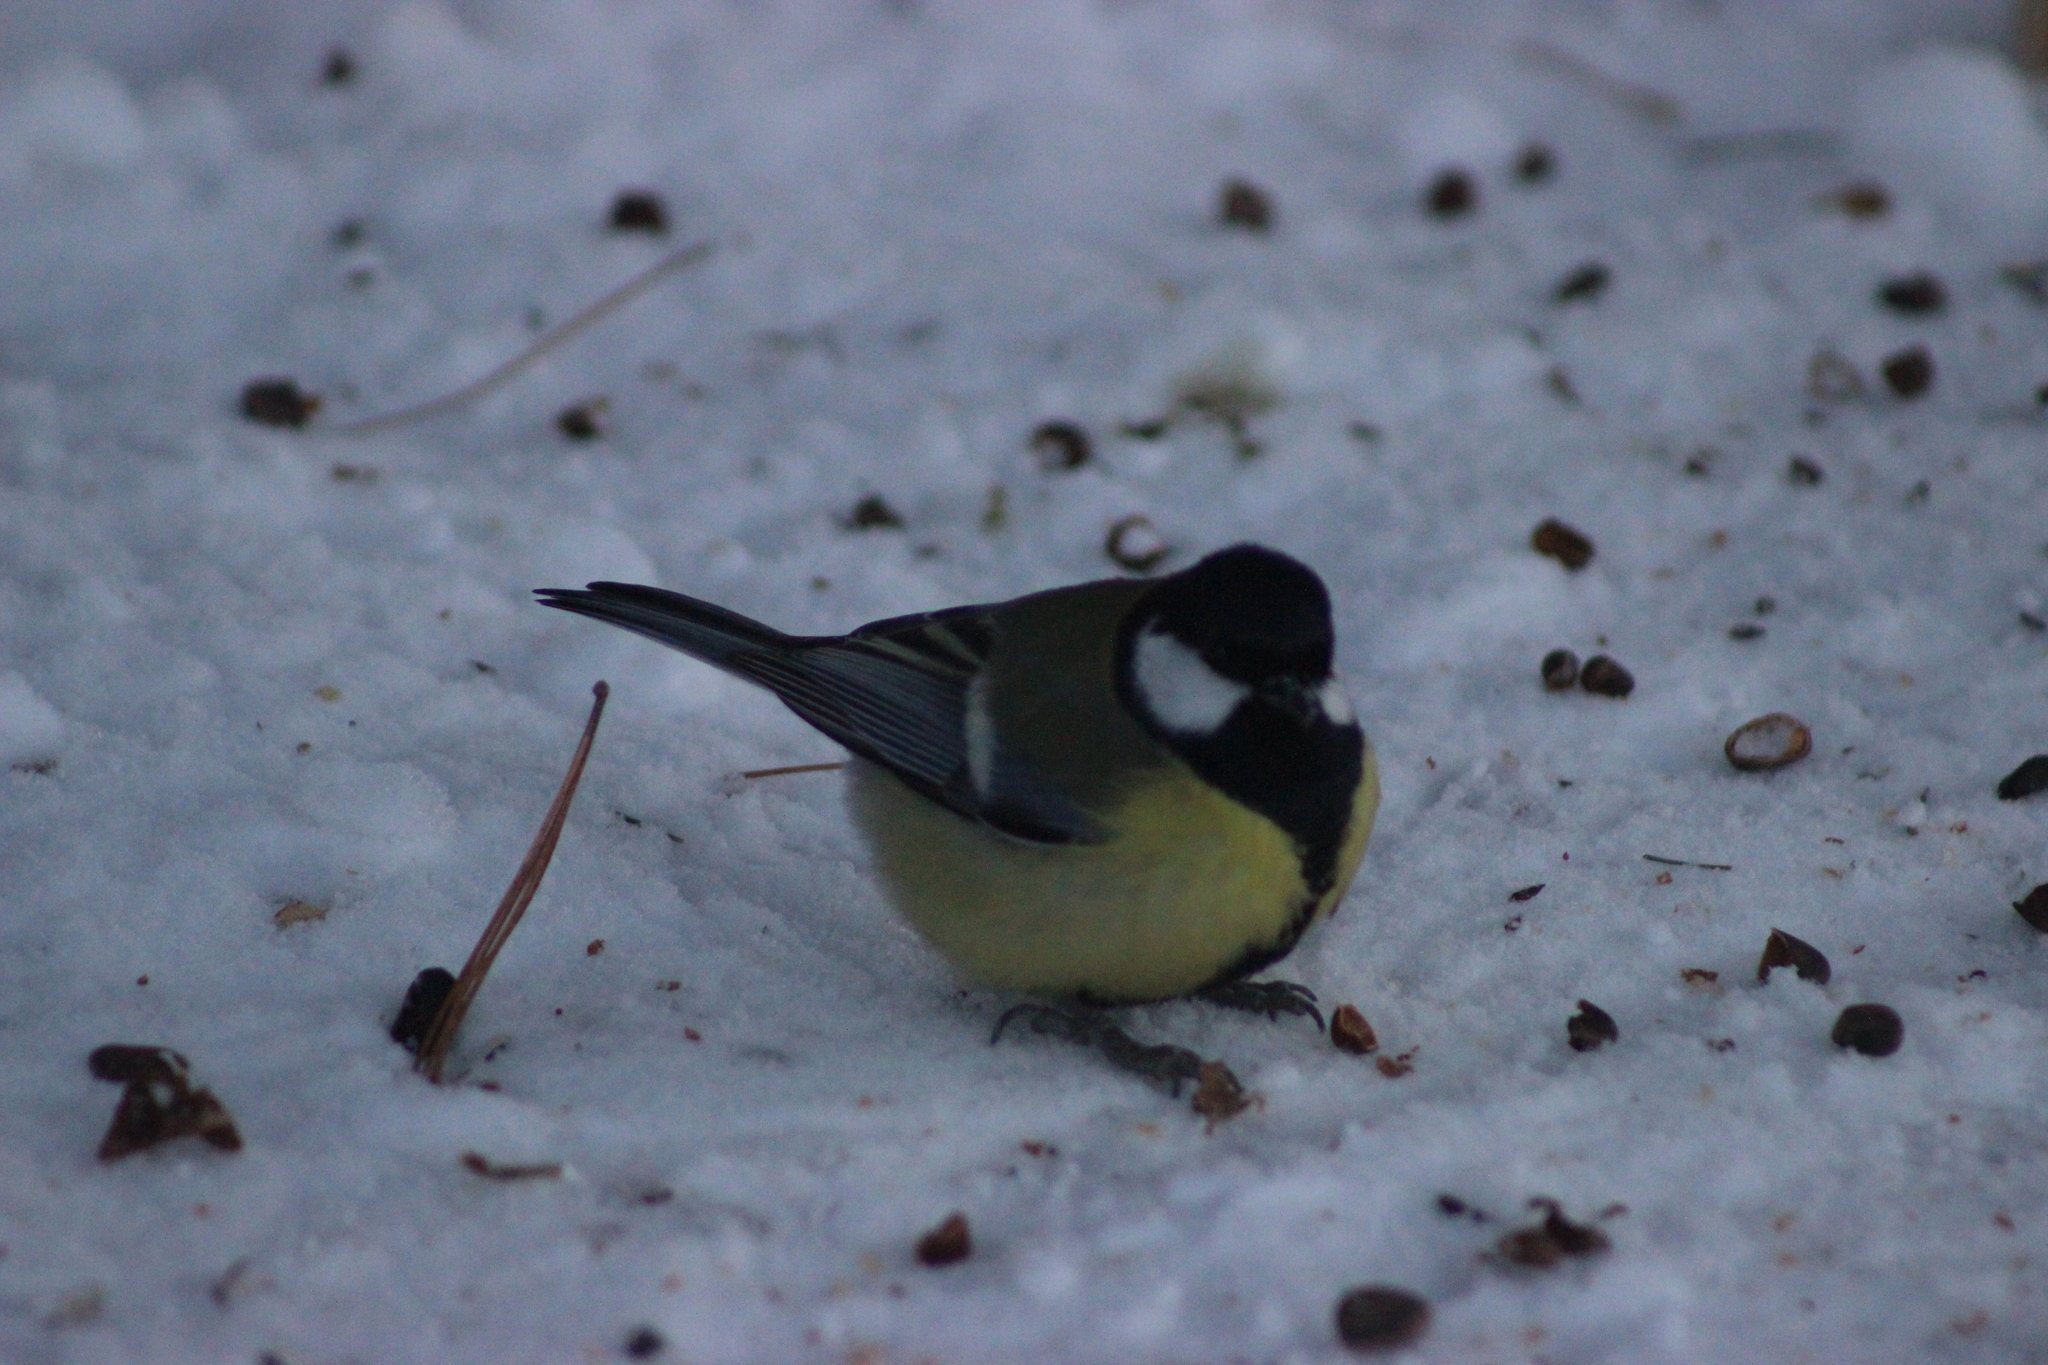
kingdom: Animalia
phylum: Chordata
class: Aves
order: Passeriformes
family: Paridae
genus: Parus
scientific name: Parus major
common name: Great tit
